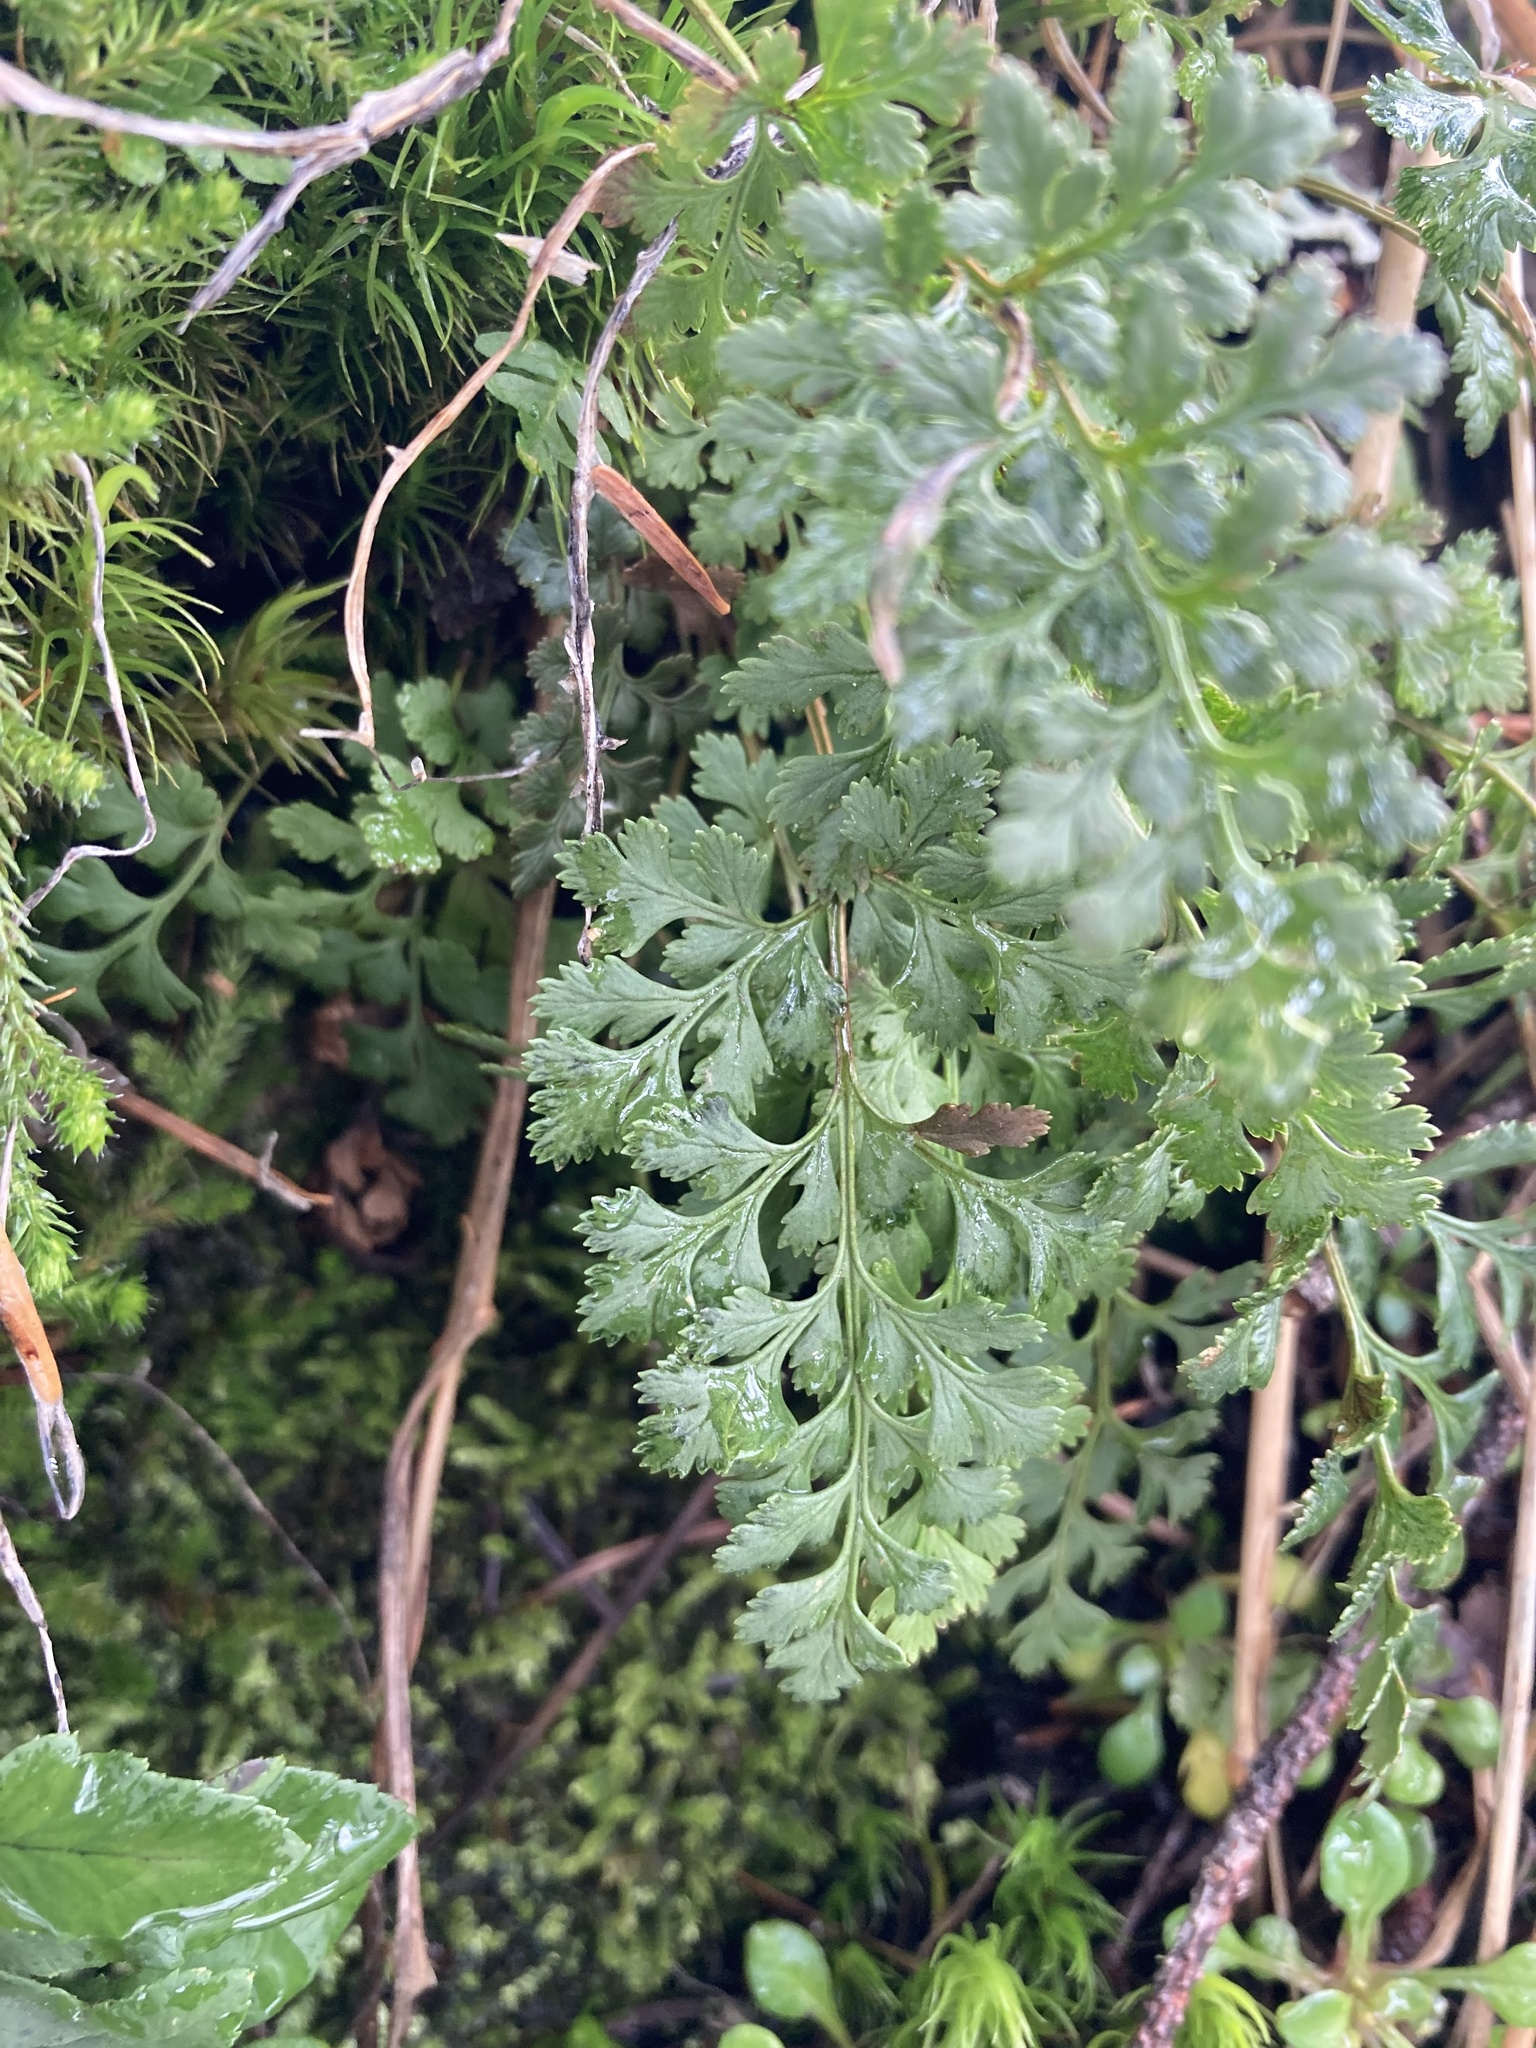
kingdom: Plantae
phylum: Tracheophyta
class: Polypodiopsida
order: Polypodiales
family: Pteridaceae
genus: Cryptogramma
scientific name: Cryptogramma acrostichoides
